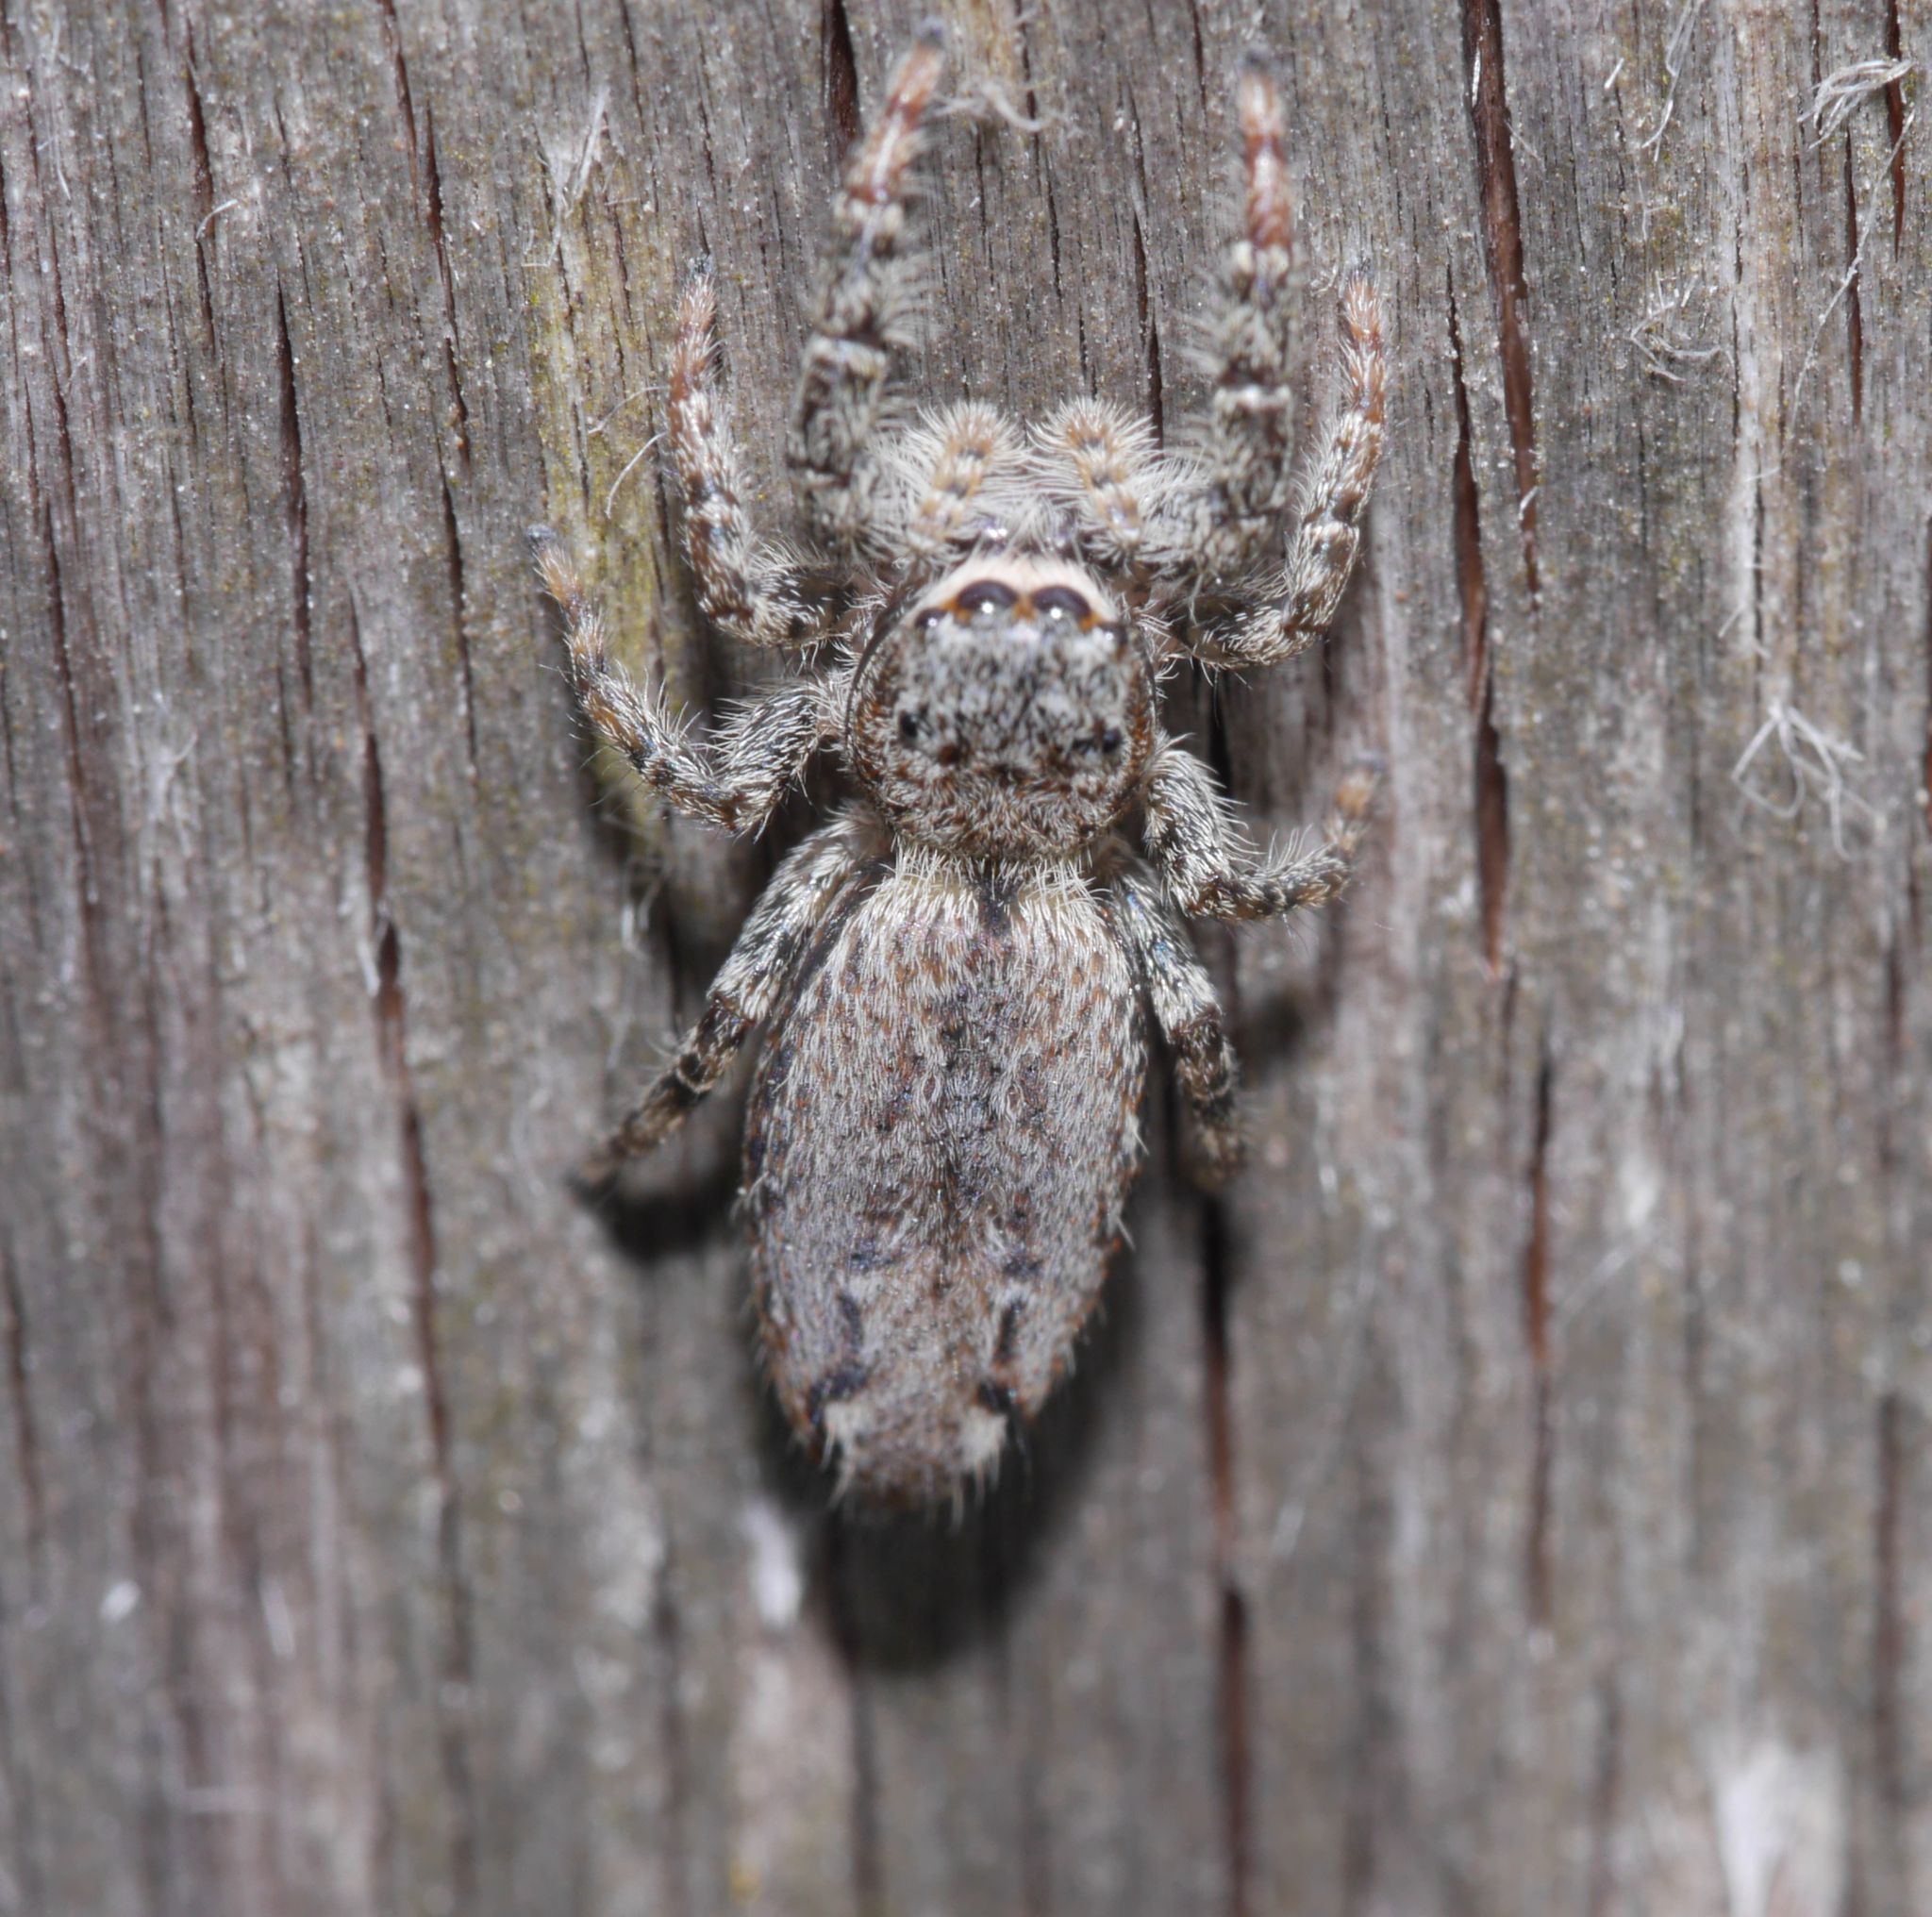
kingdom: Animalia
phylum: Arthropoda
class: Arachnida
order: Araneae
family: Salticidae
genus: Marpissa
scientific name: Marpissa muscosa
